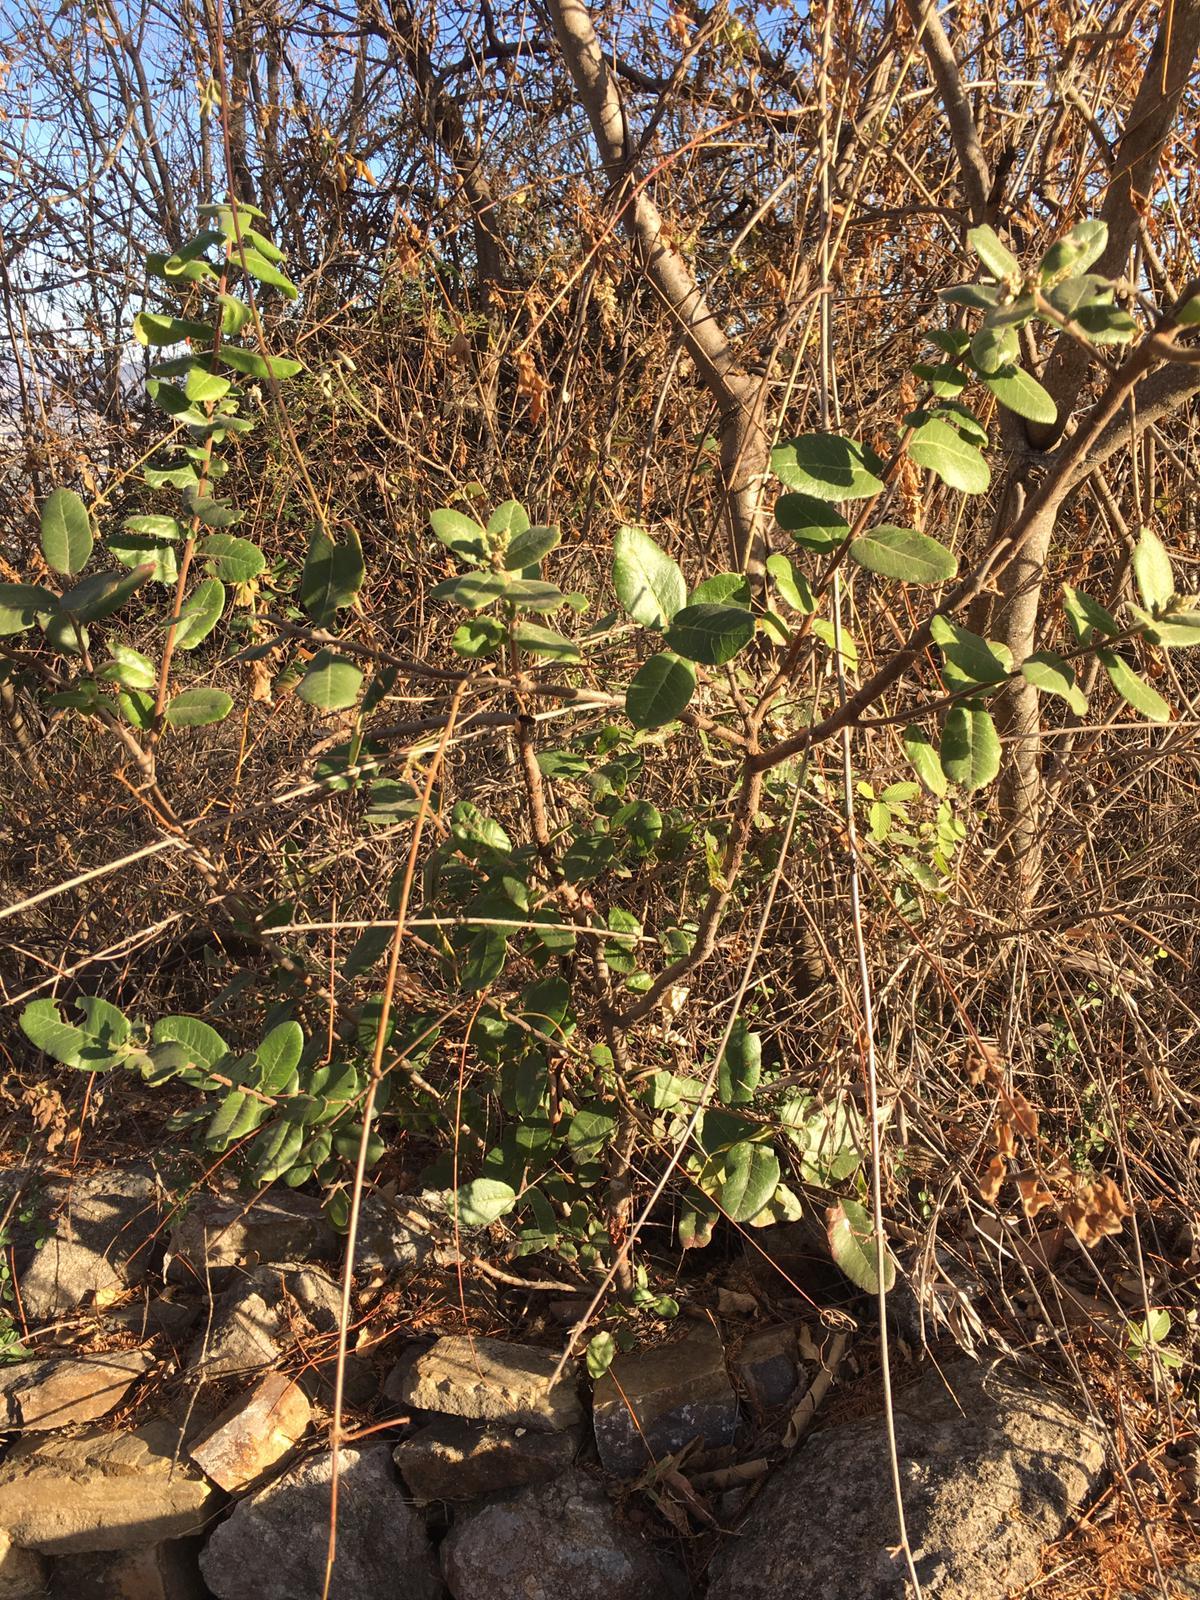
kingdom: Plantae
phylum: Tracheophyta
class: Magnoliopsida
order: Sapindales
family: Anacardiaceae
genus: Rhus
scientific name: Rhus standleyi
